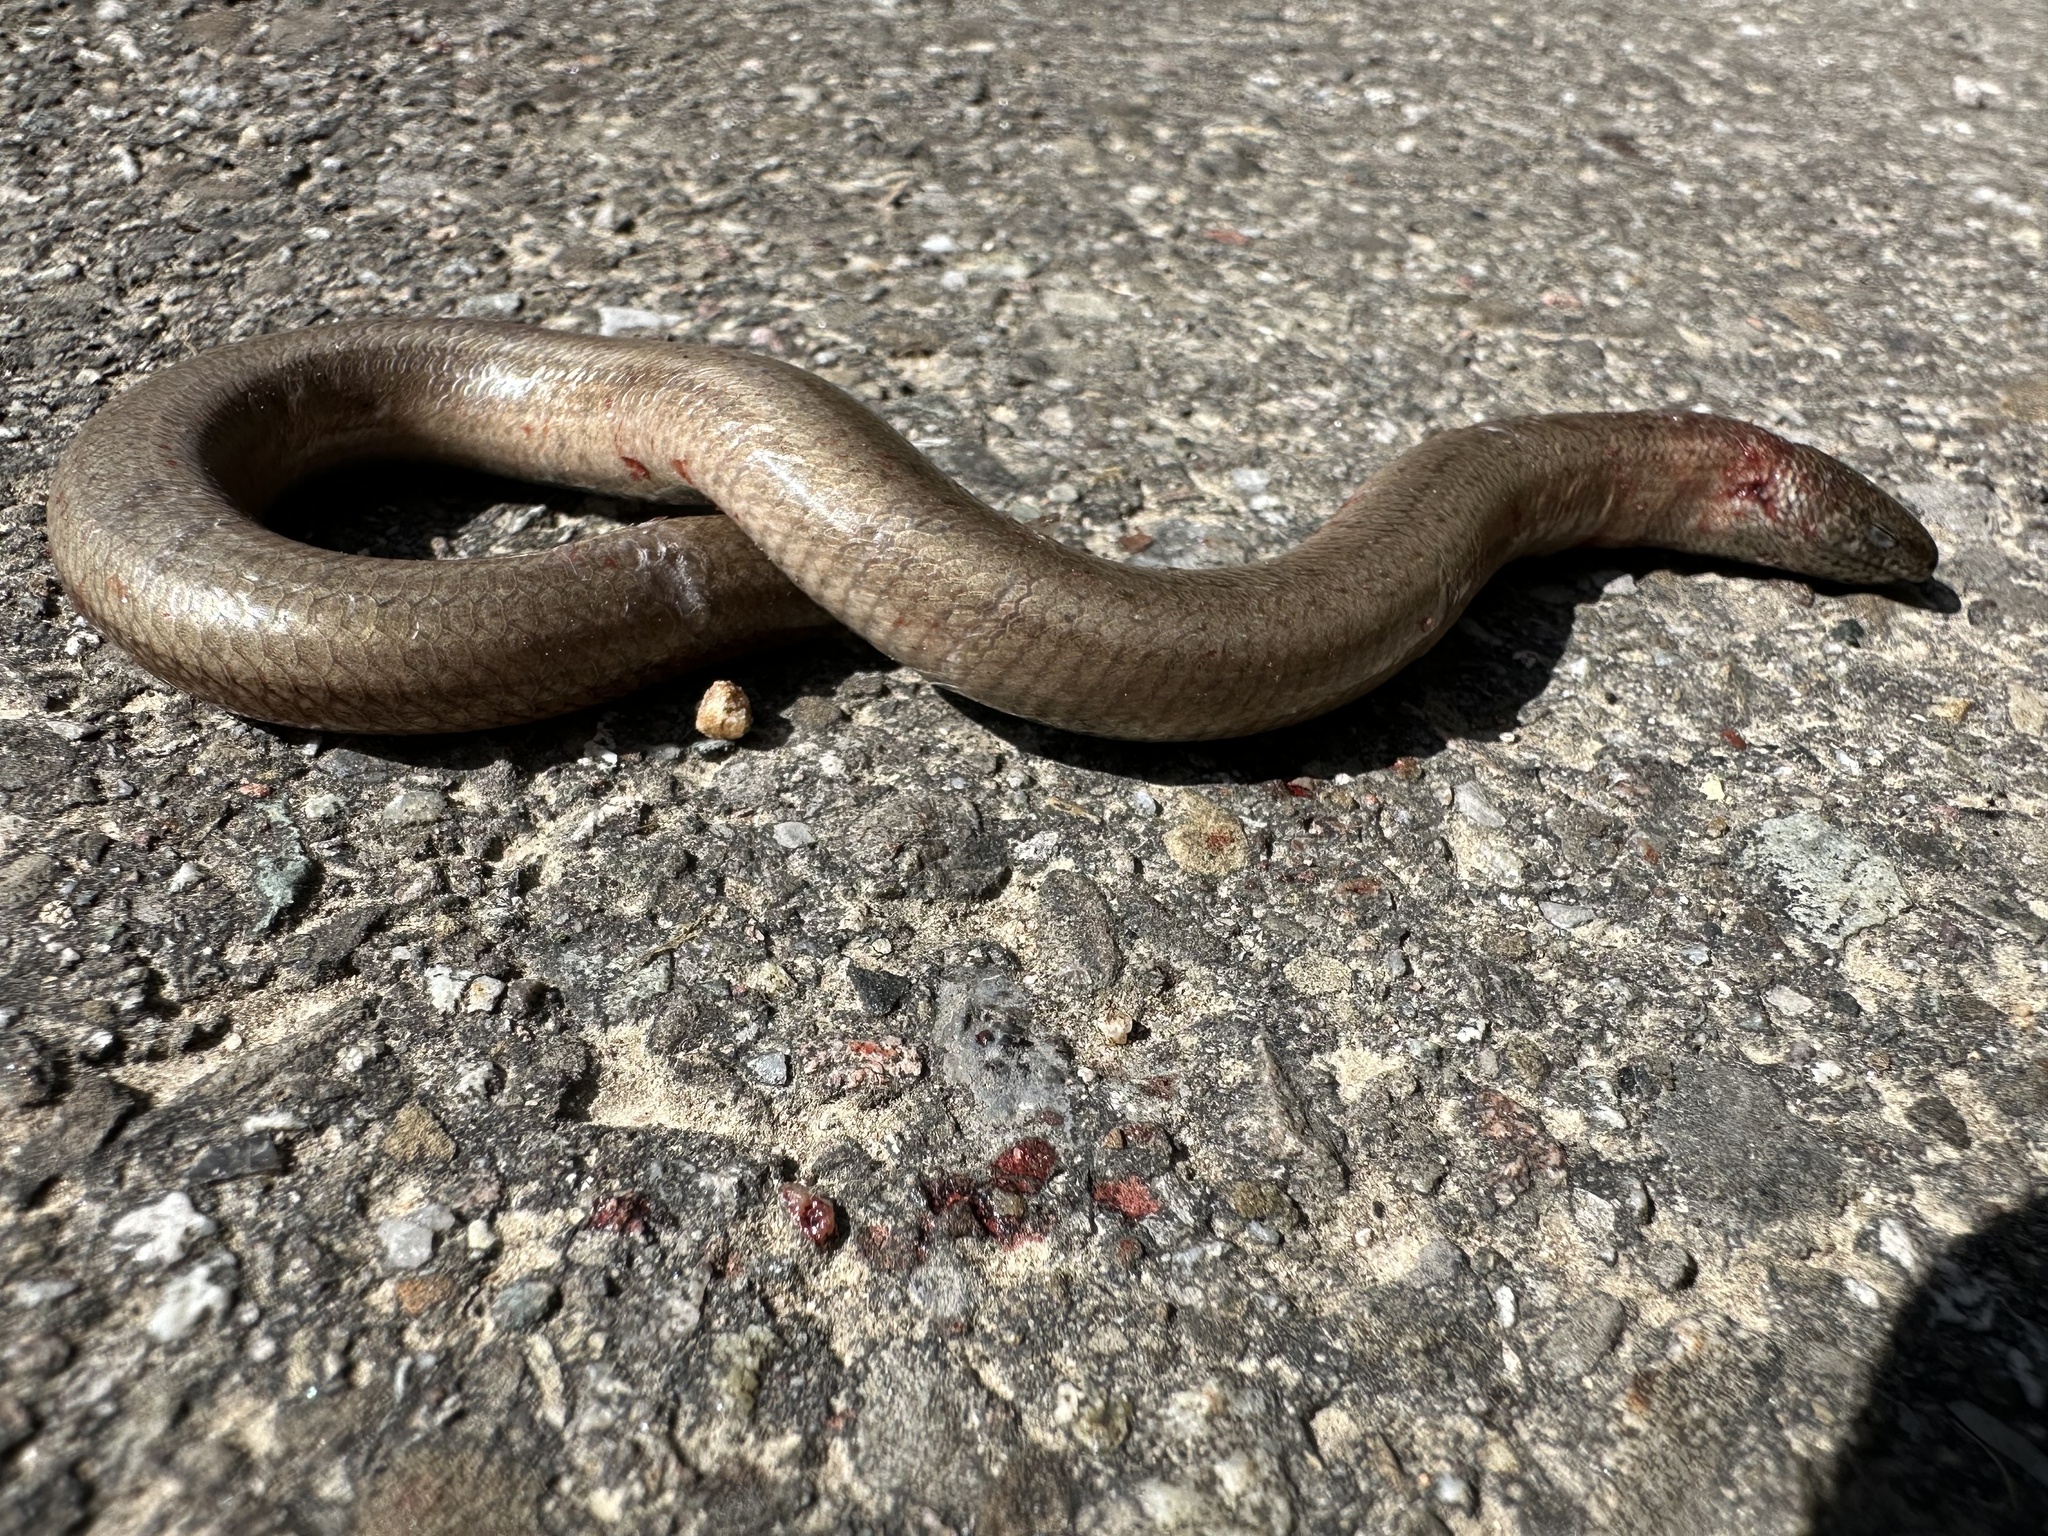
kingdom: Animalia
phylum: Chordata
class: Squamata
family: Anguidae
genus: Anguis
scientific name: Anguis fragilis
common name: Slow worm
